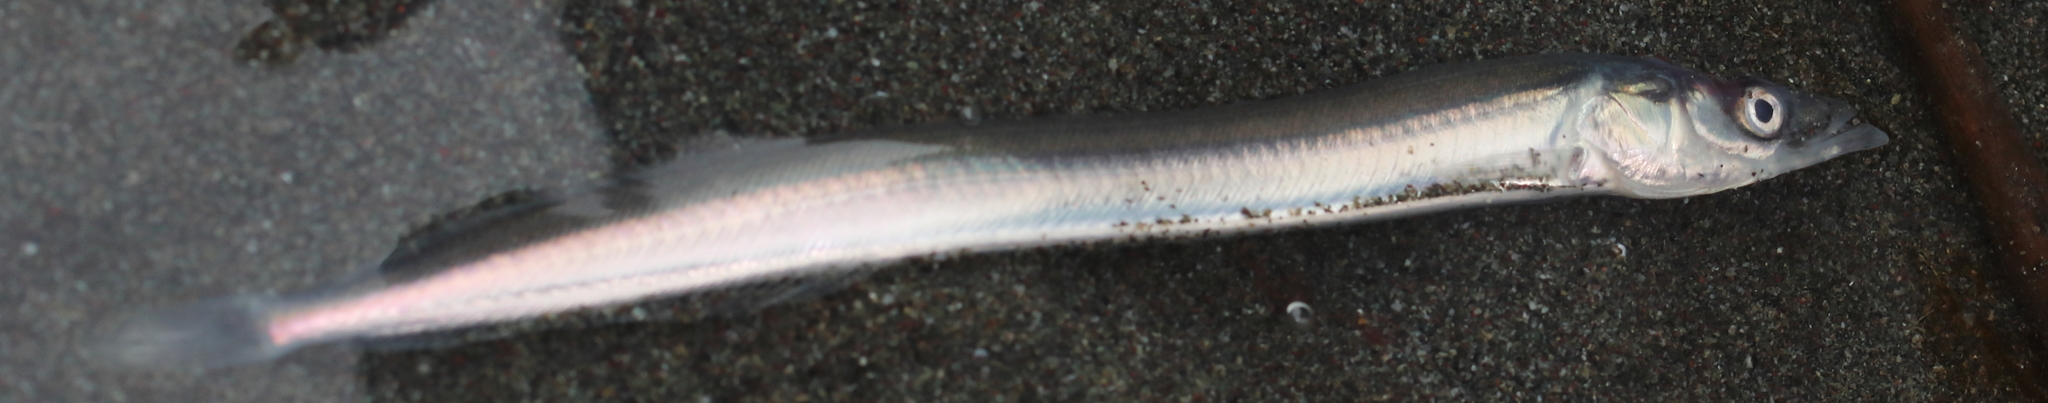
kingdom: Animalia
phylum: Chordata
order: Perciformes
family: Ammodytidae
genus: Ammodytes
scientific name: Ammodytes personatus
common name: Japanese sand lance
